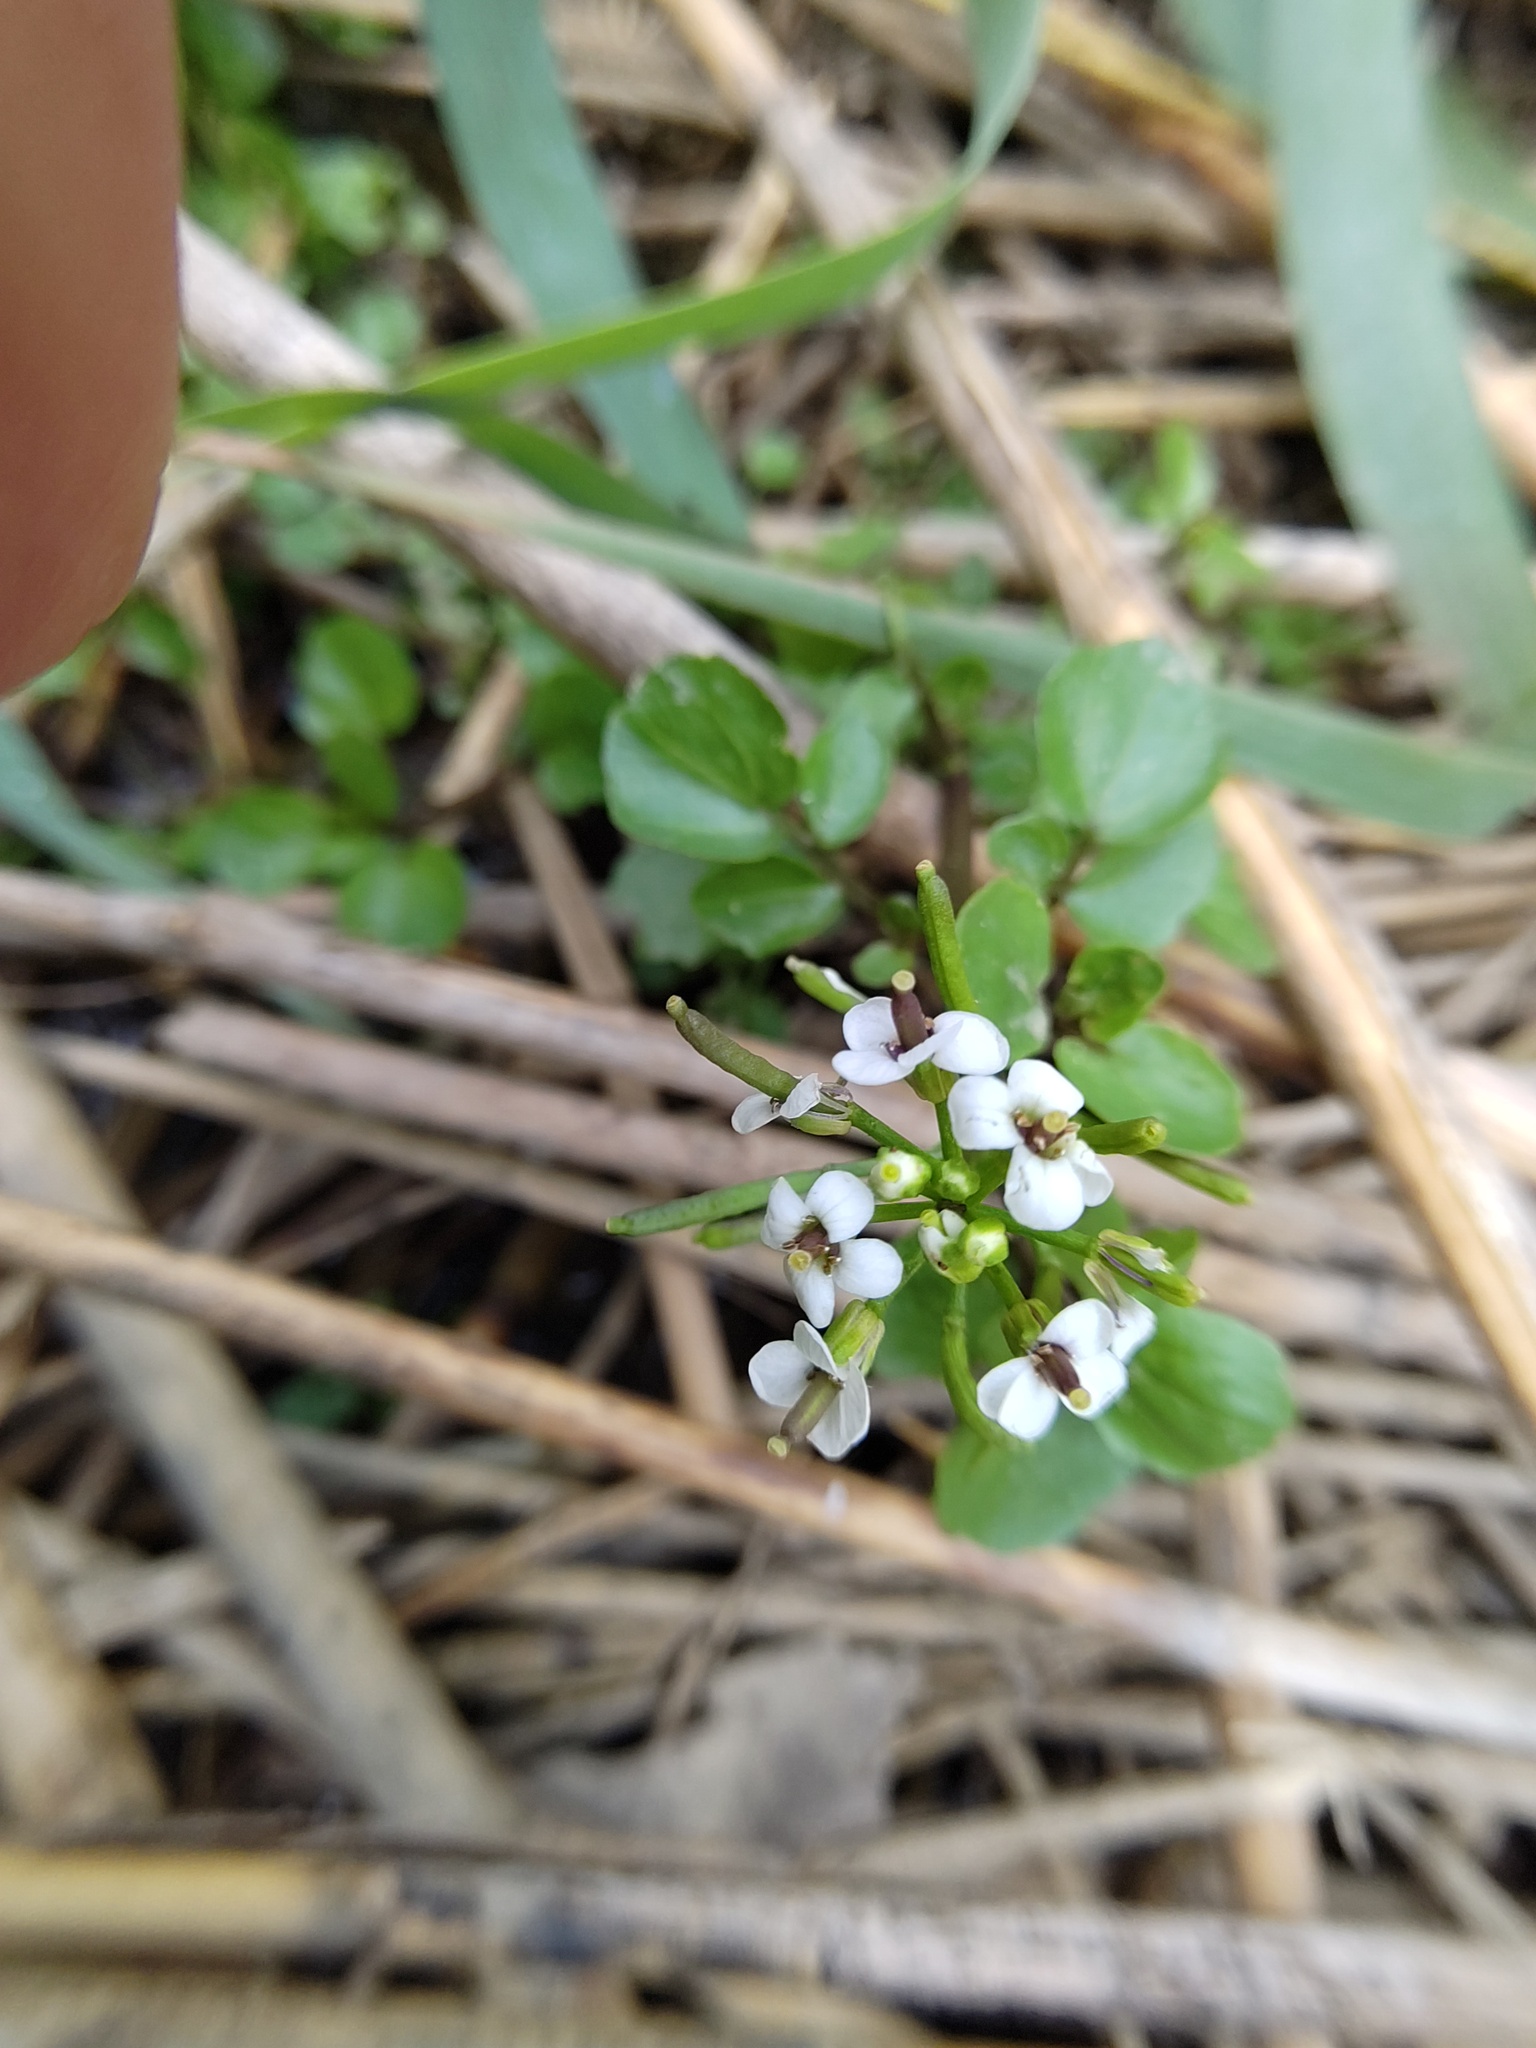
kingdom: Plantae
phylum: Tracheophyta
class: Magnoliopsida
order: Brassicales
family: Brassicaceae
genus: Nasturtium
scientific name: Nasturtium officinale
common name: Watercress
